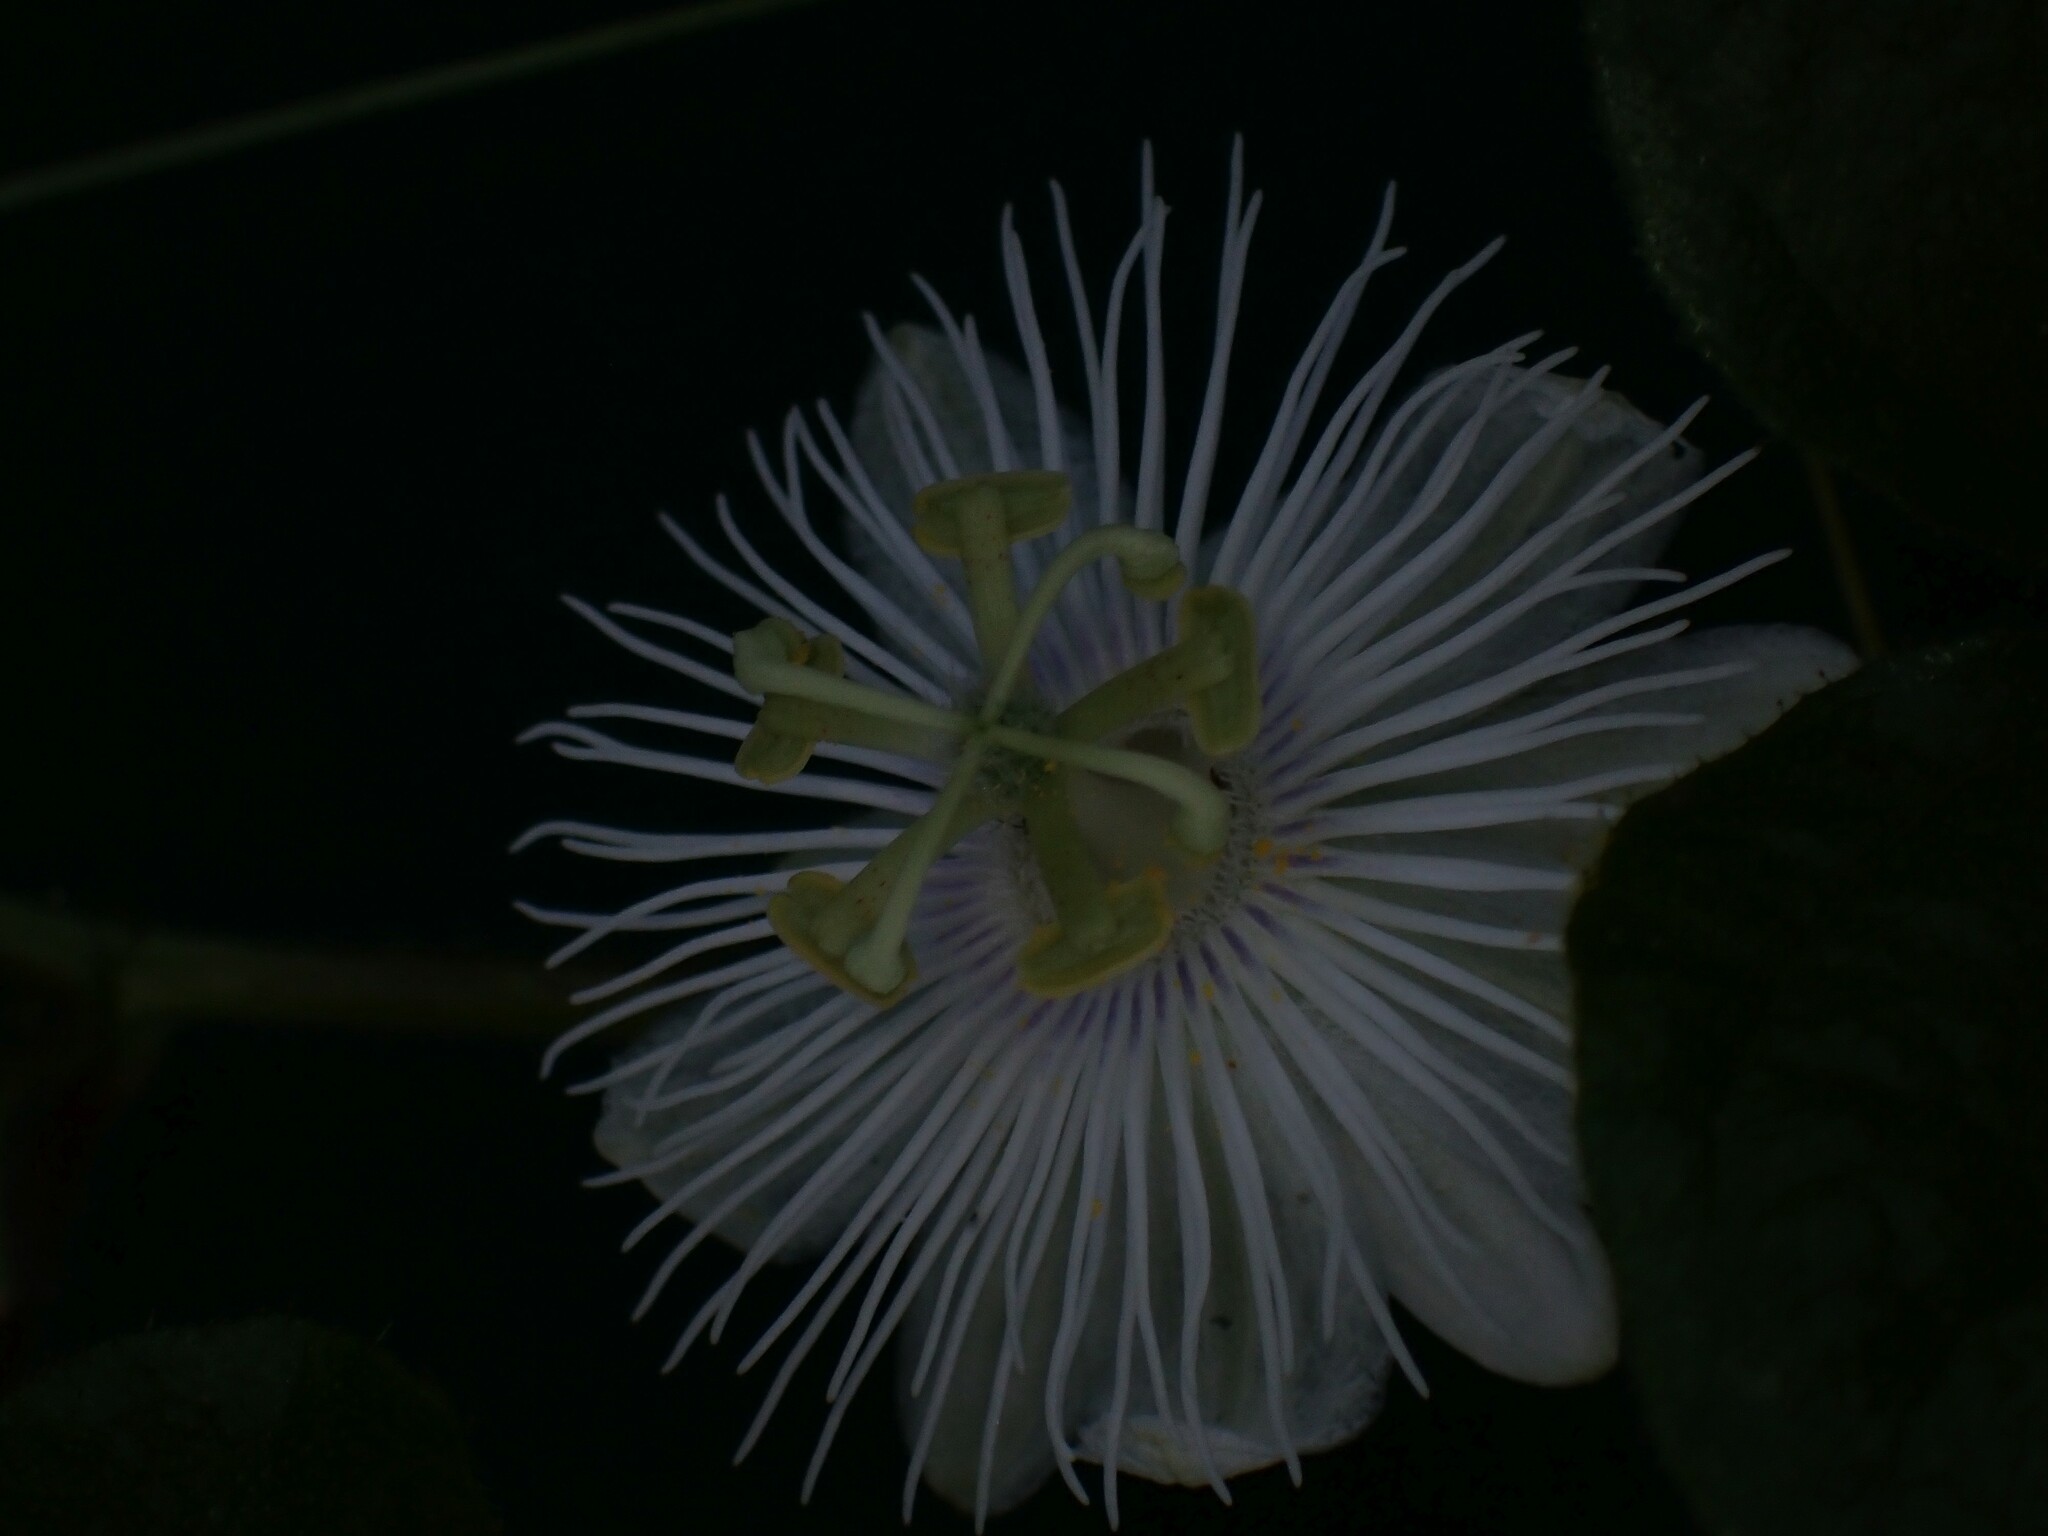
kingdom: Plantae
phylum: Tracheophyta
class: Magnoliopsida
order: Malpighiales
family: Passifloraceae
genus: Passiflora
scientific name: Passiflora foetida
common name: Fetid passionflower
